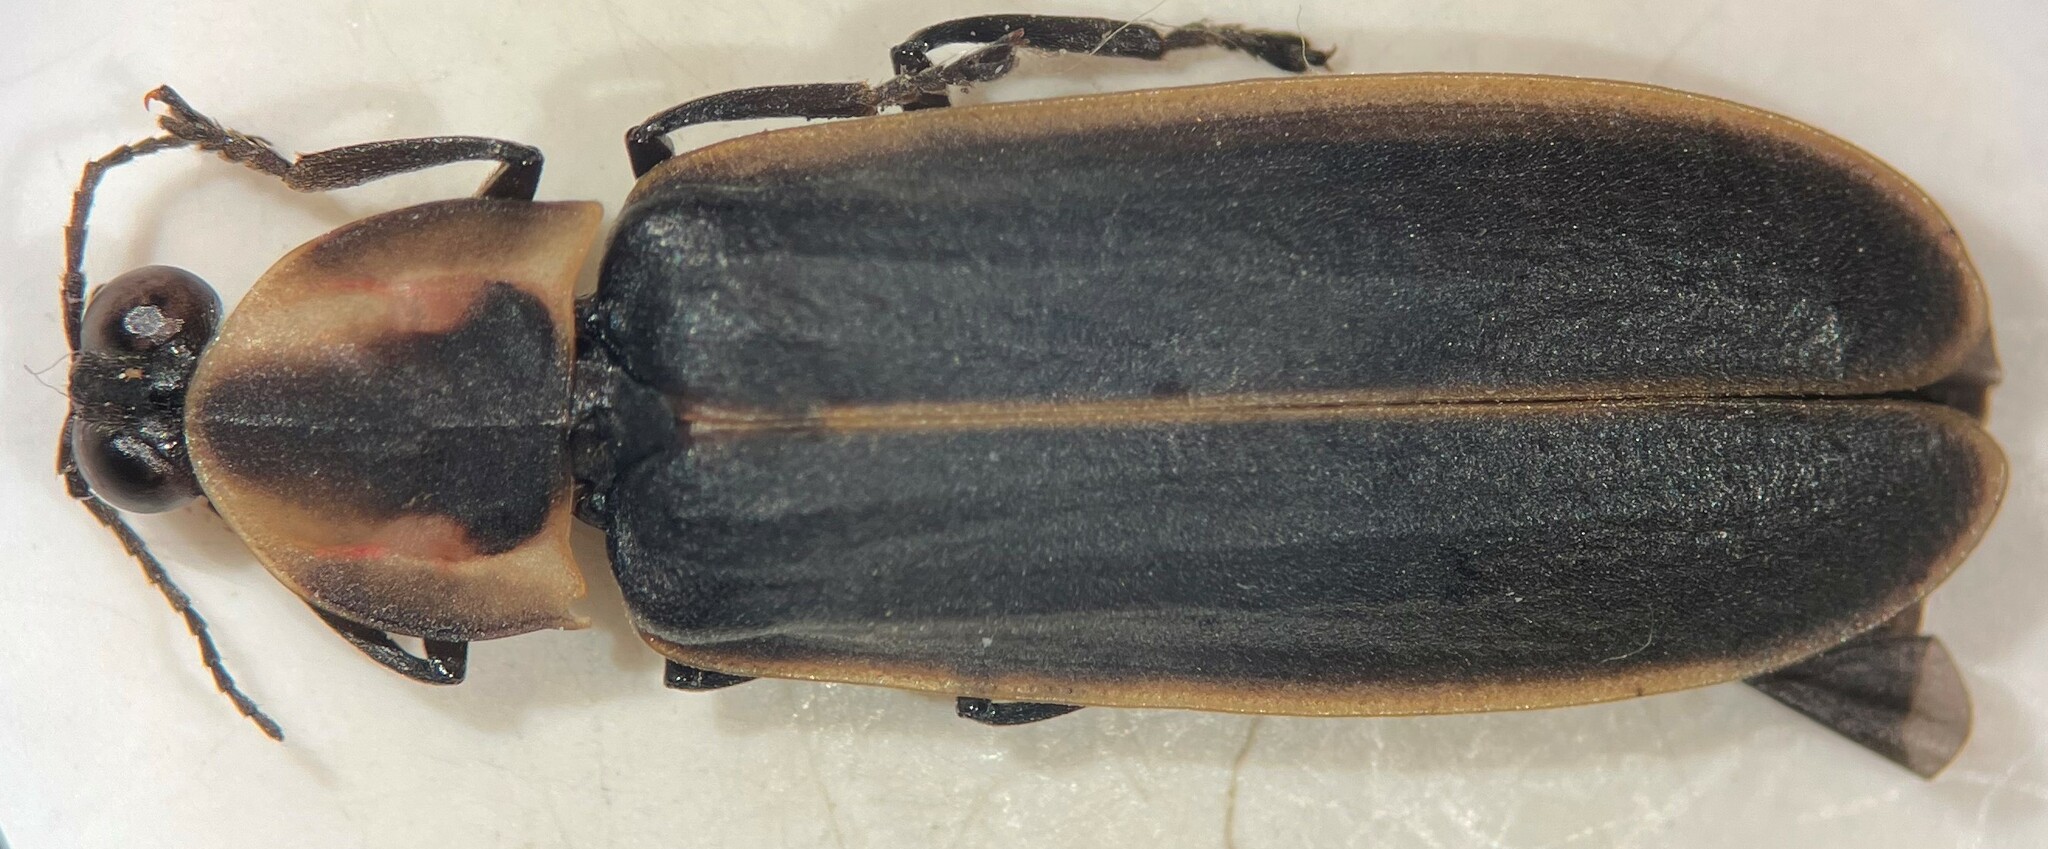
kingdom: Animalia
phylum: Arthropoda
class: Insecta
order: Coleoptera
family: Lampyridae
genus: Pyractomena
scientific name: Pyractomena borealis
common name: Northern firefly
